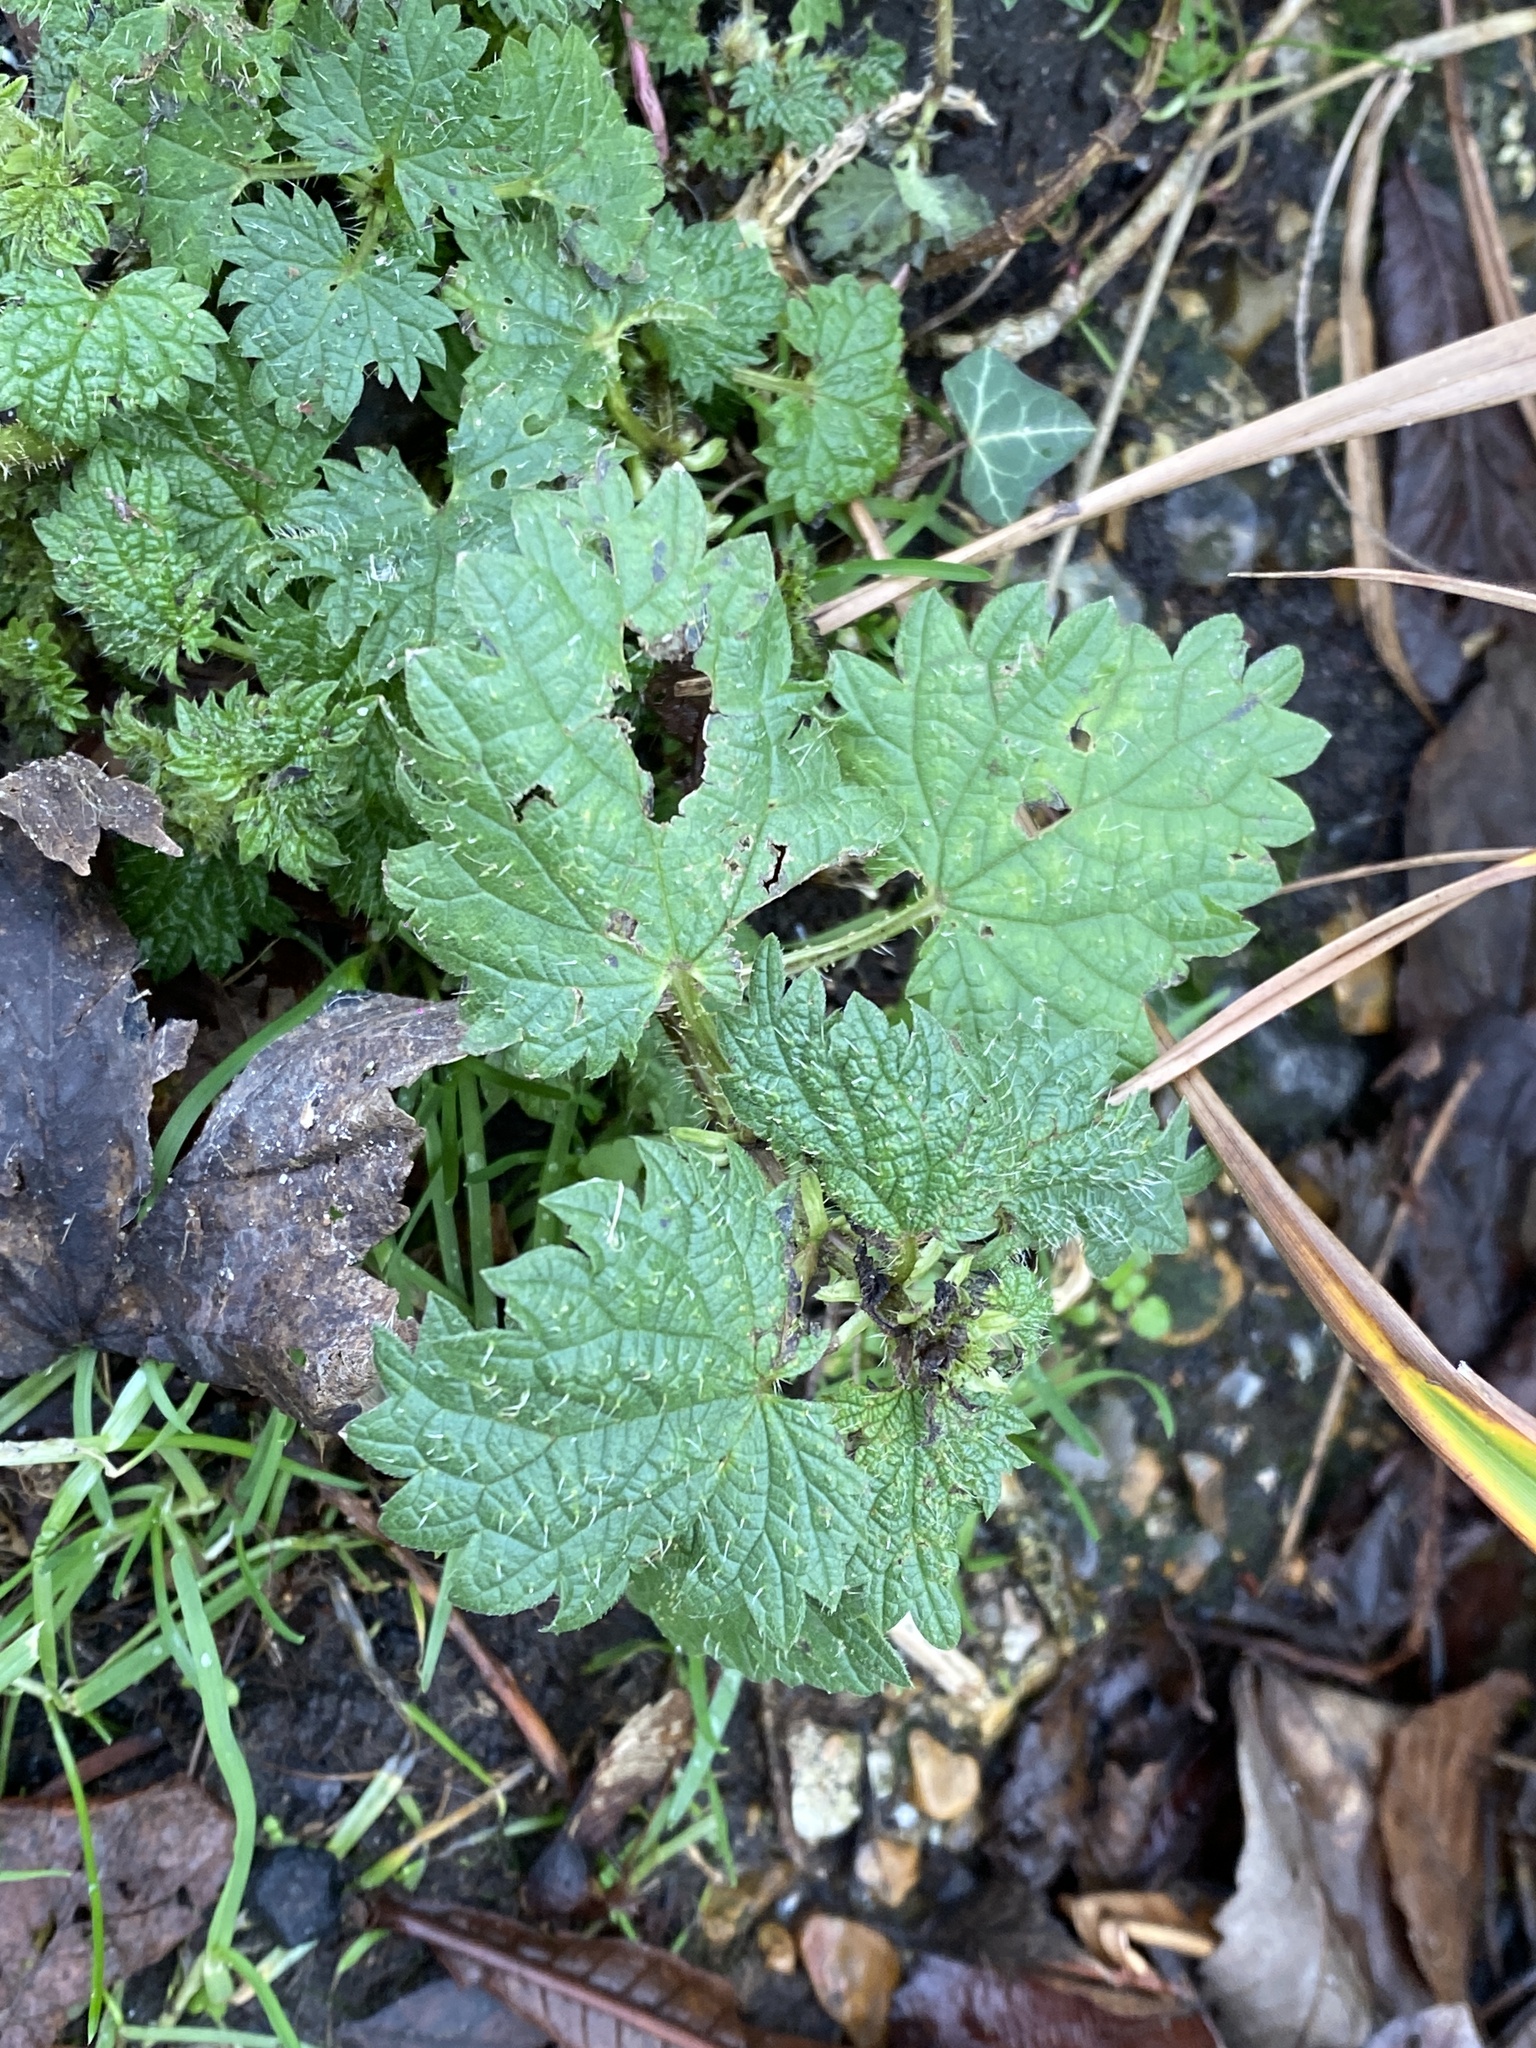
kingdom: Plantae
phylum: Tracheophyta
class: Magnoliopsida
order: Rosales
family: Urticaceae
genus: Urtica
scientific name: Urtica dioica
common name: Common nettle
